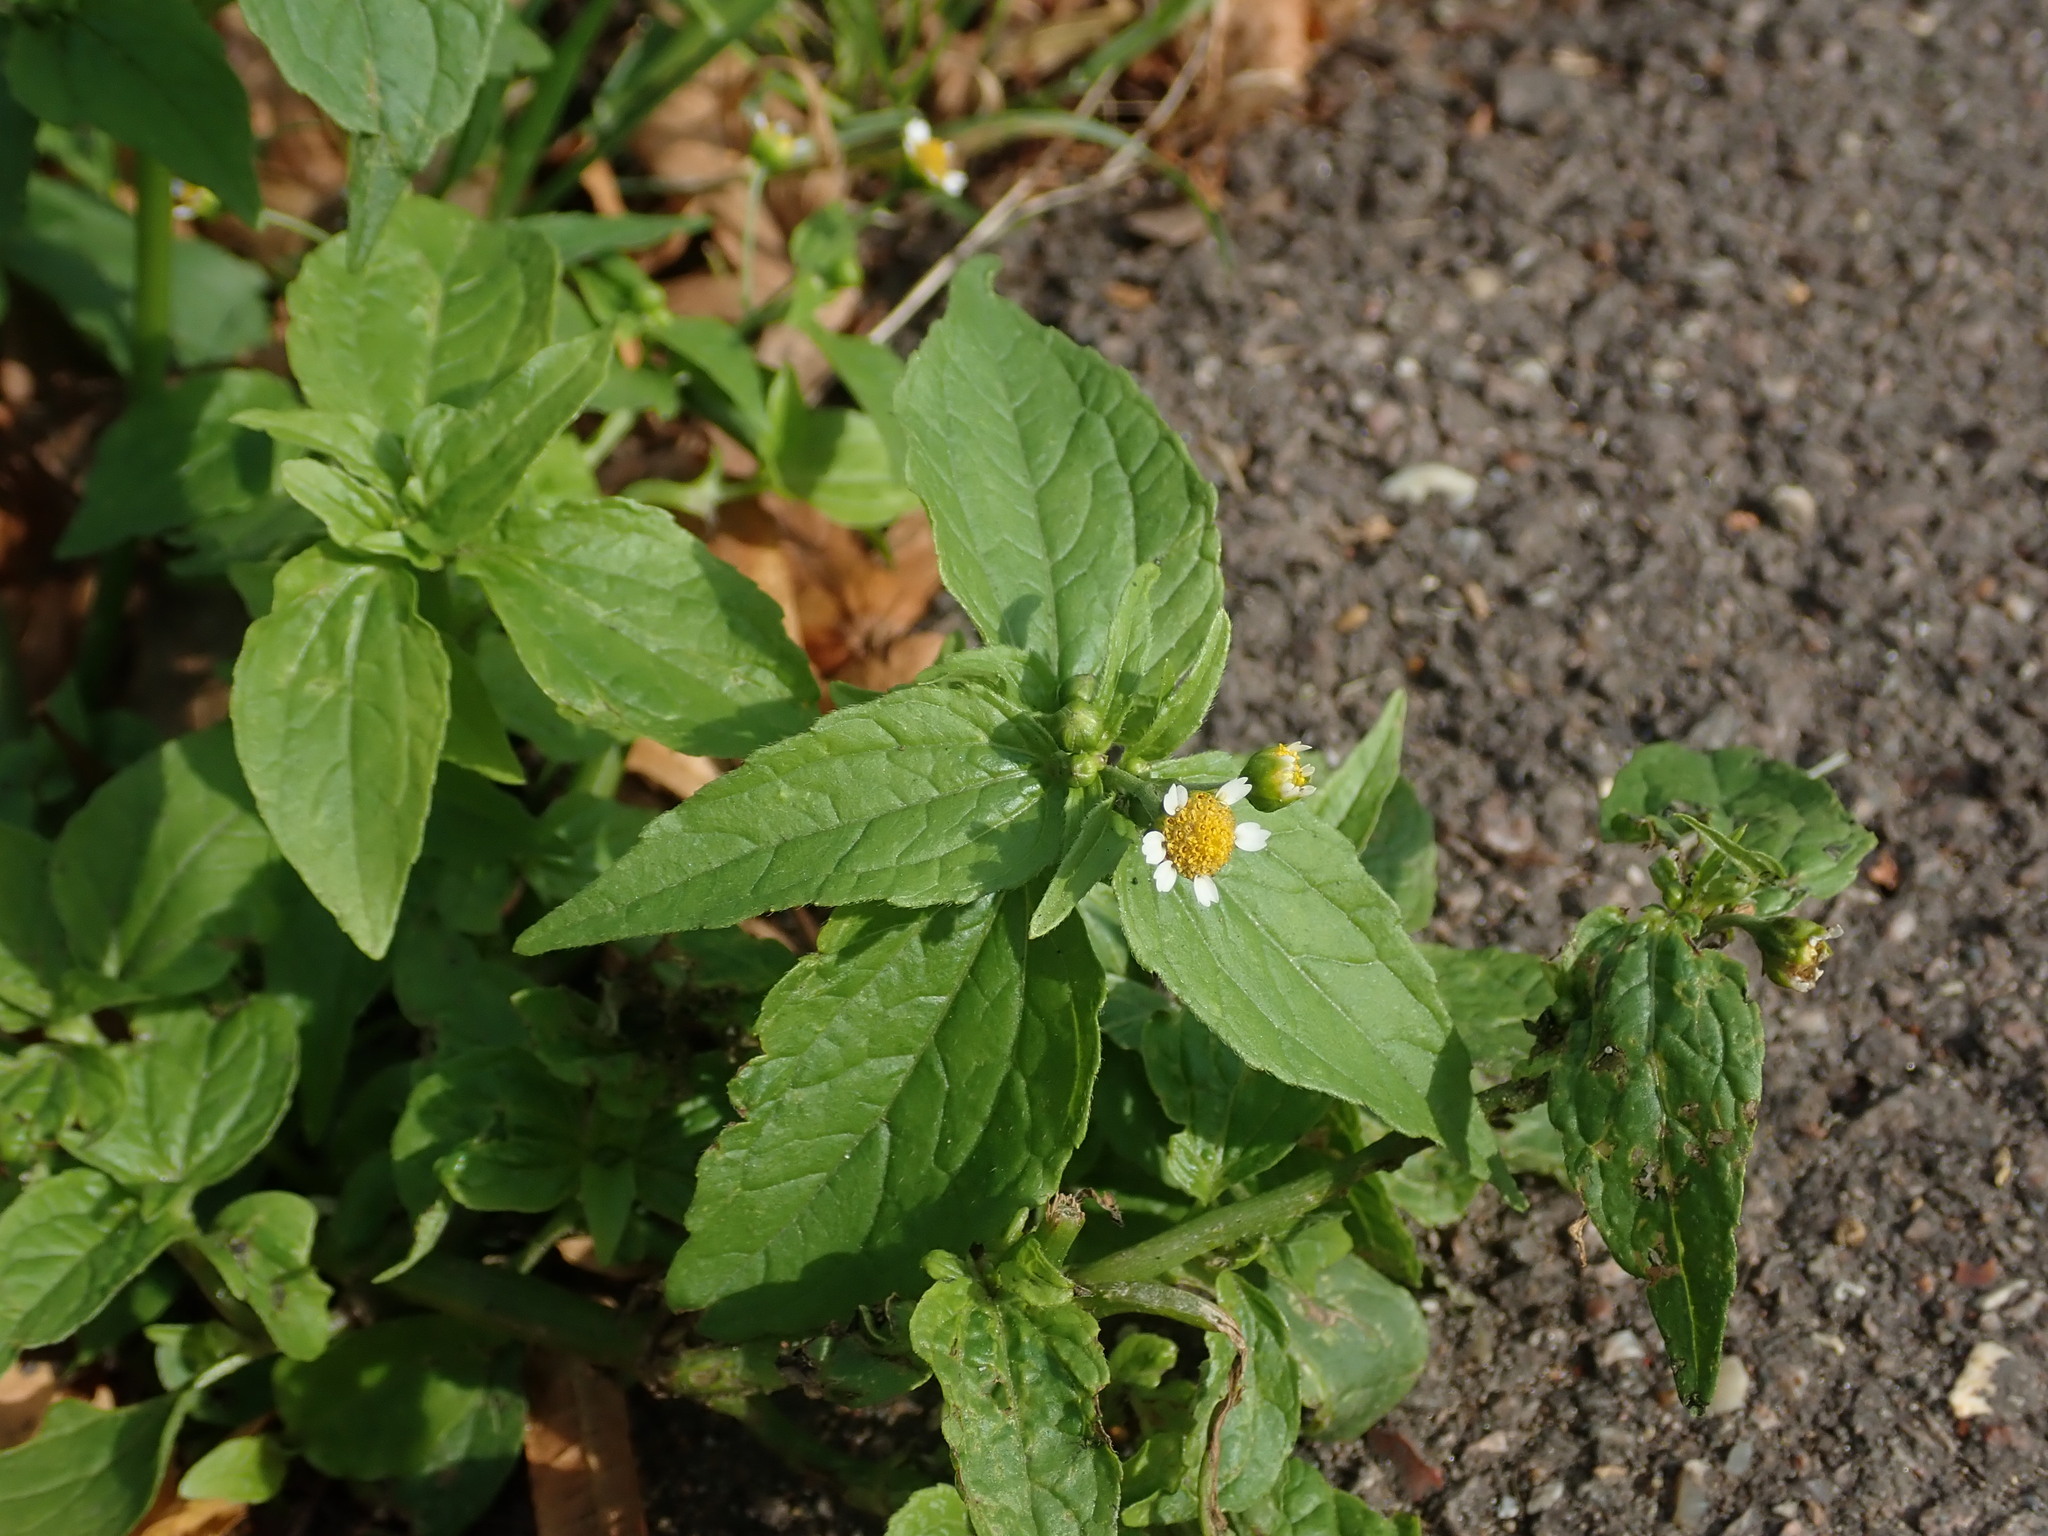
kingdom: Plantae
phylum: Tracheophyta
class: Magnoliopsida
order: Asterales
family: Asteraceae
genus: Galinsoga
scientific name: Galinsoga quadriradiata
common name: Shaggy soldier
